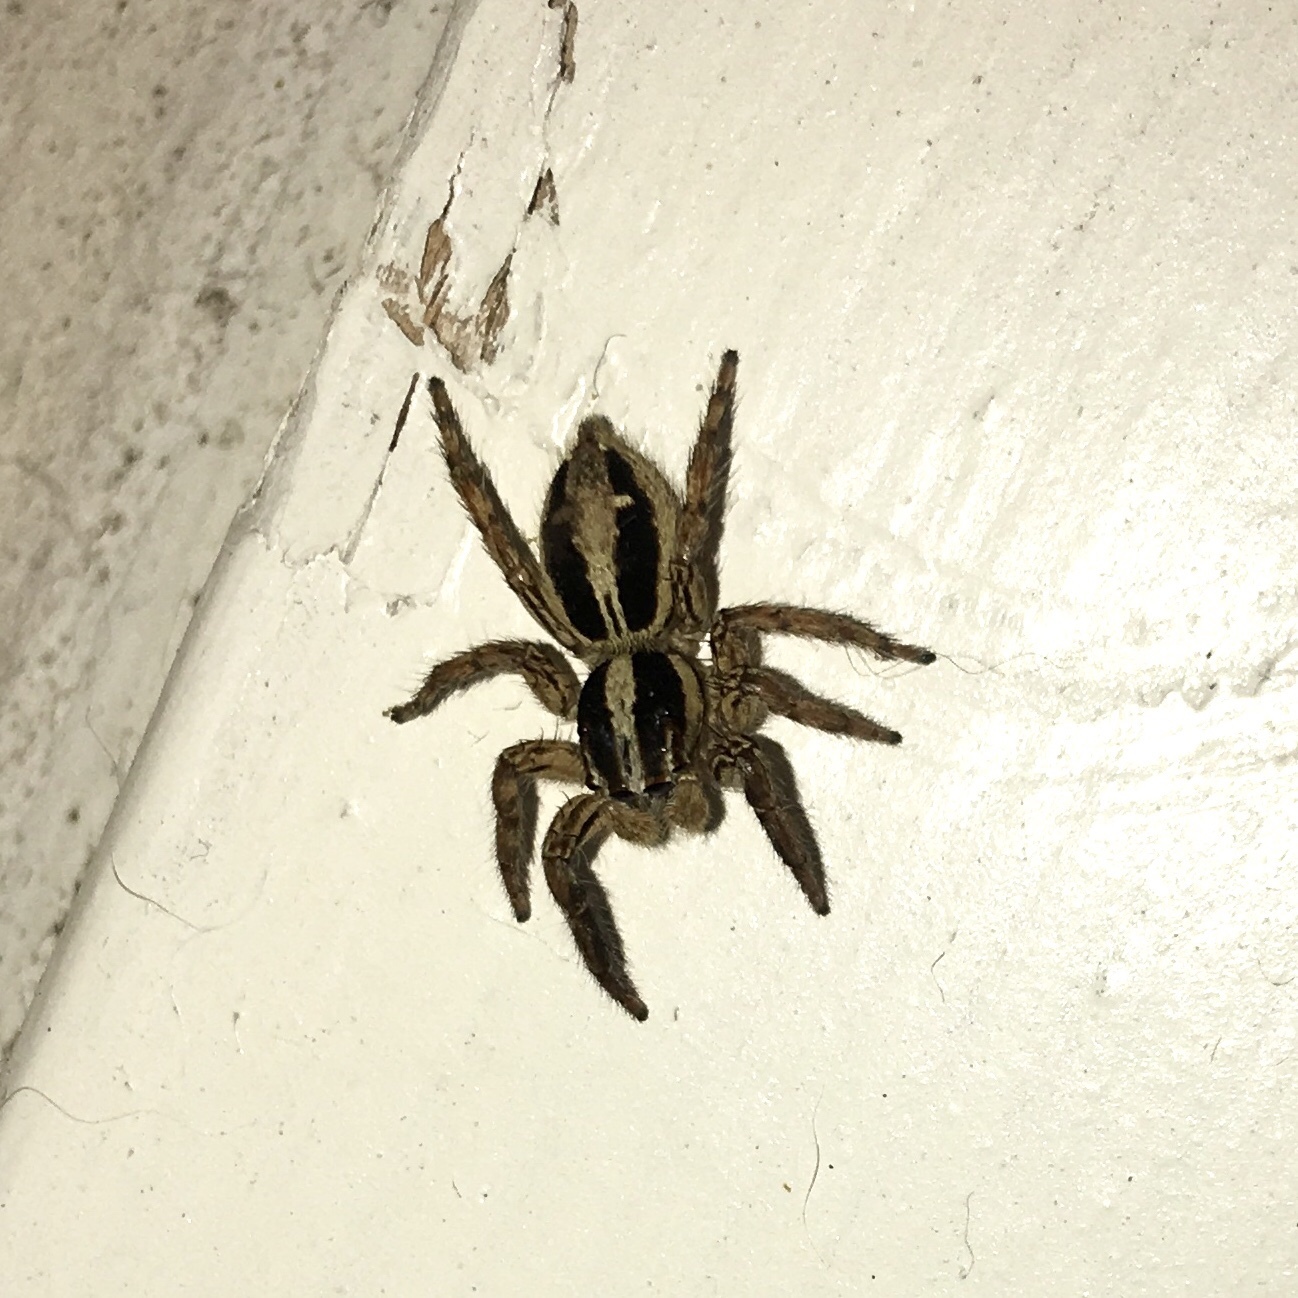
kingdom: Animalia
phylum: Arthropoda
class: Arachnida
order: Araneae
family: Salticidae
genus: Plexippus
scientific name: Plexippus paykulli
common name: Pantropical jumper
